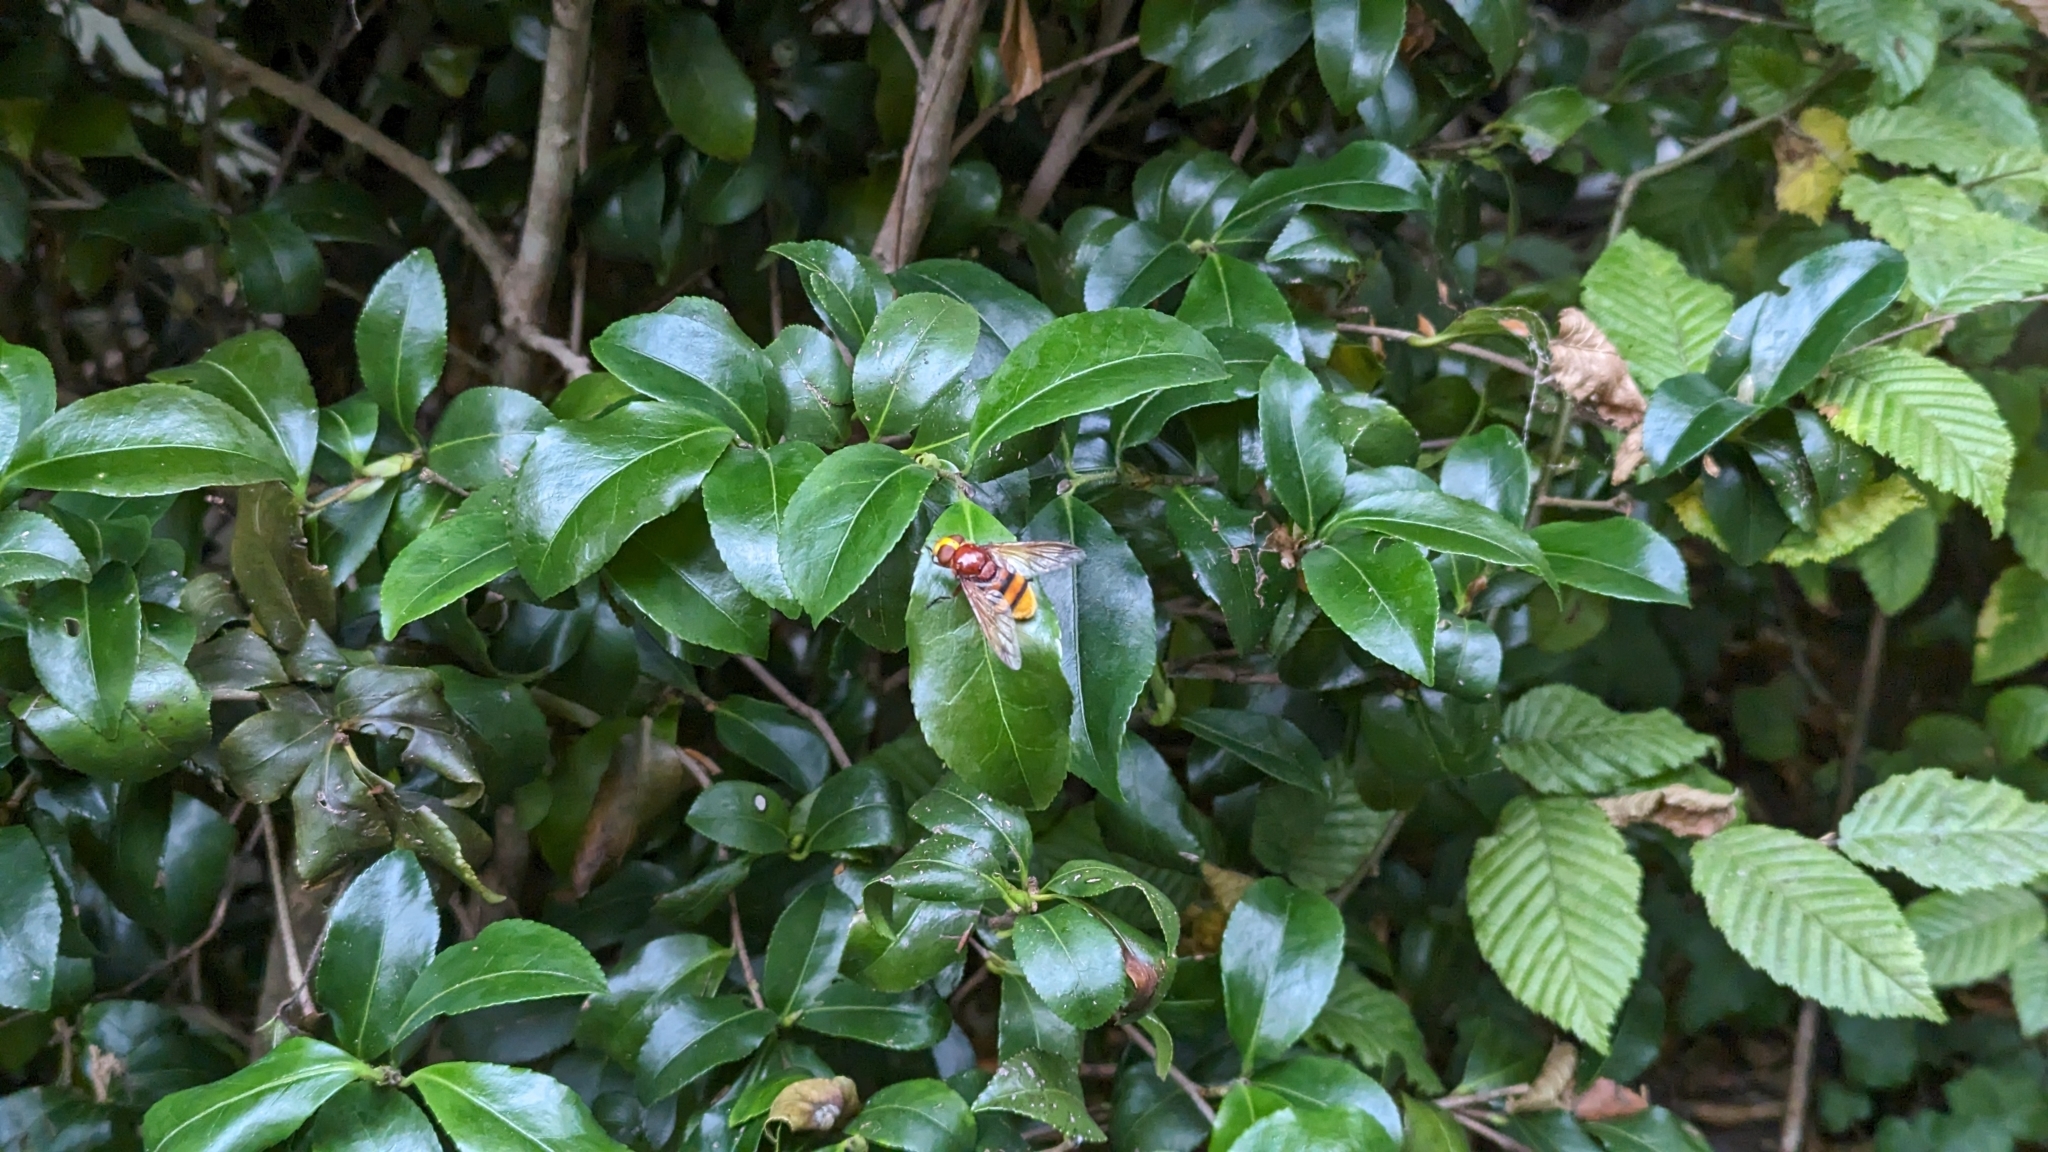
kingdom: Animalia
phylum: Arthropoda
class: Insecta
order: Diptera
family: Syrphidae
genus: Volucella
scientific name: Volucella zonaria
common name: Hornet hoverfly
